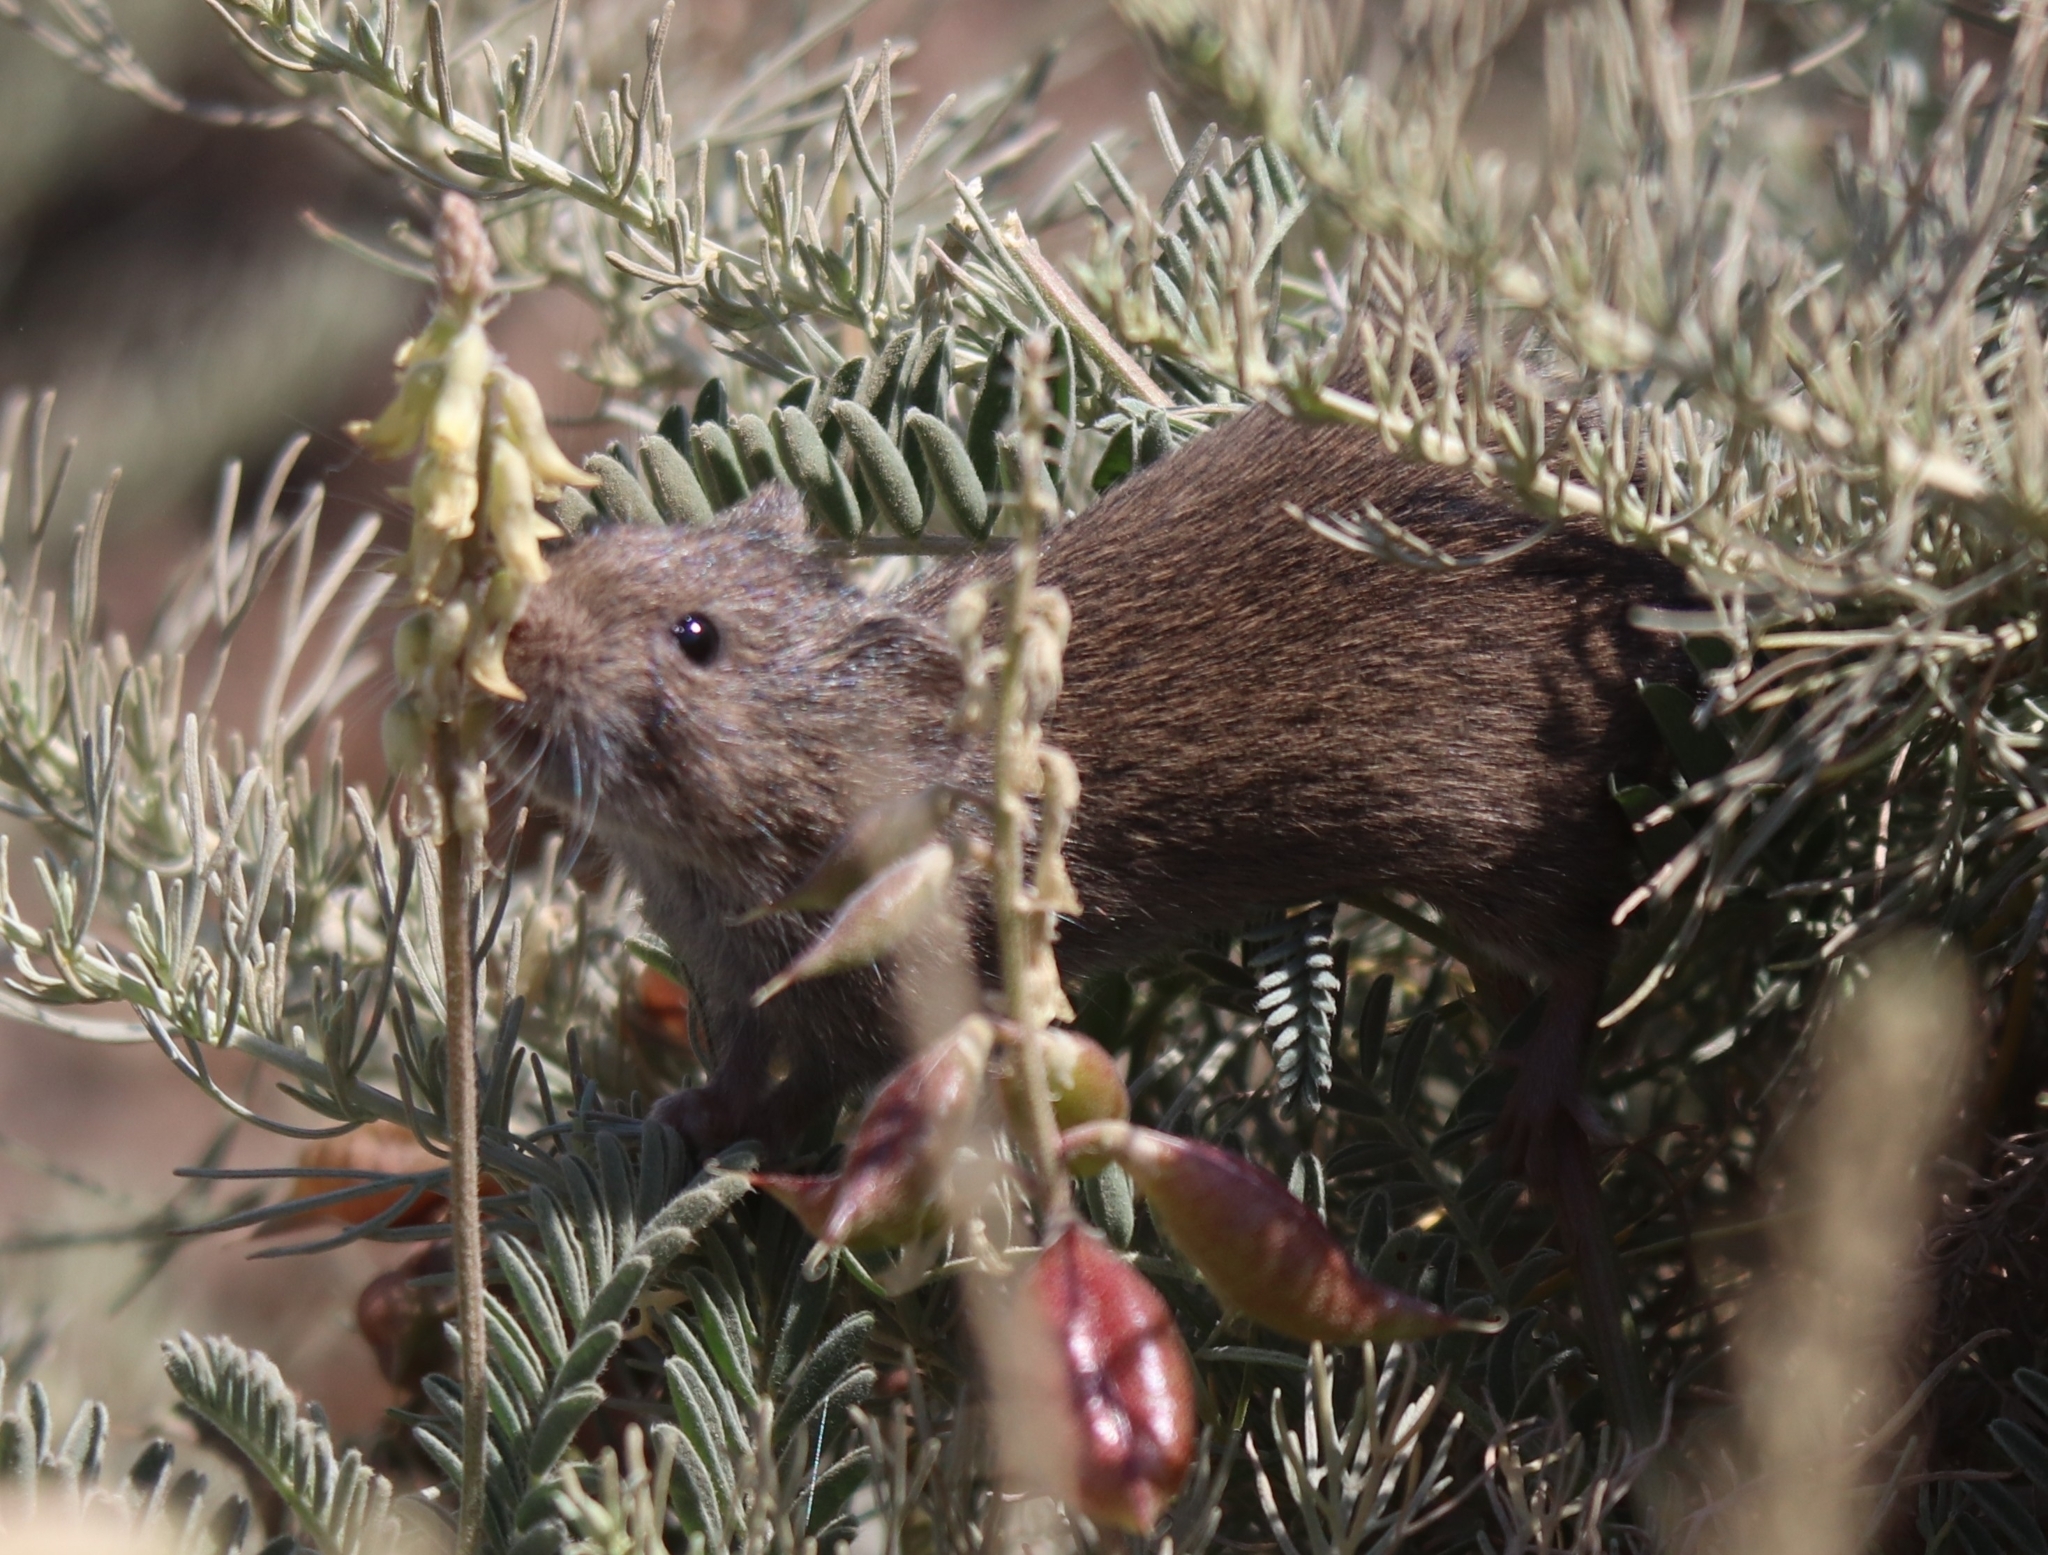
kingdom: Animalia
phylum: Chordata
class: Mammalia
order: Rodentia
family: Cricetidae
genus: Microtus
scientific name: Microtus californicus
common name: California vole
